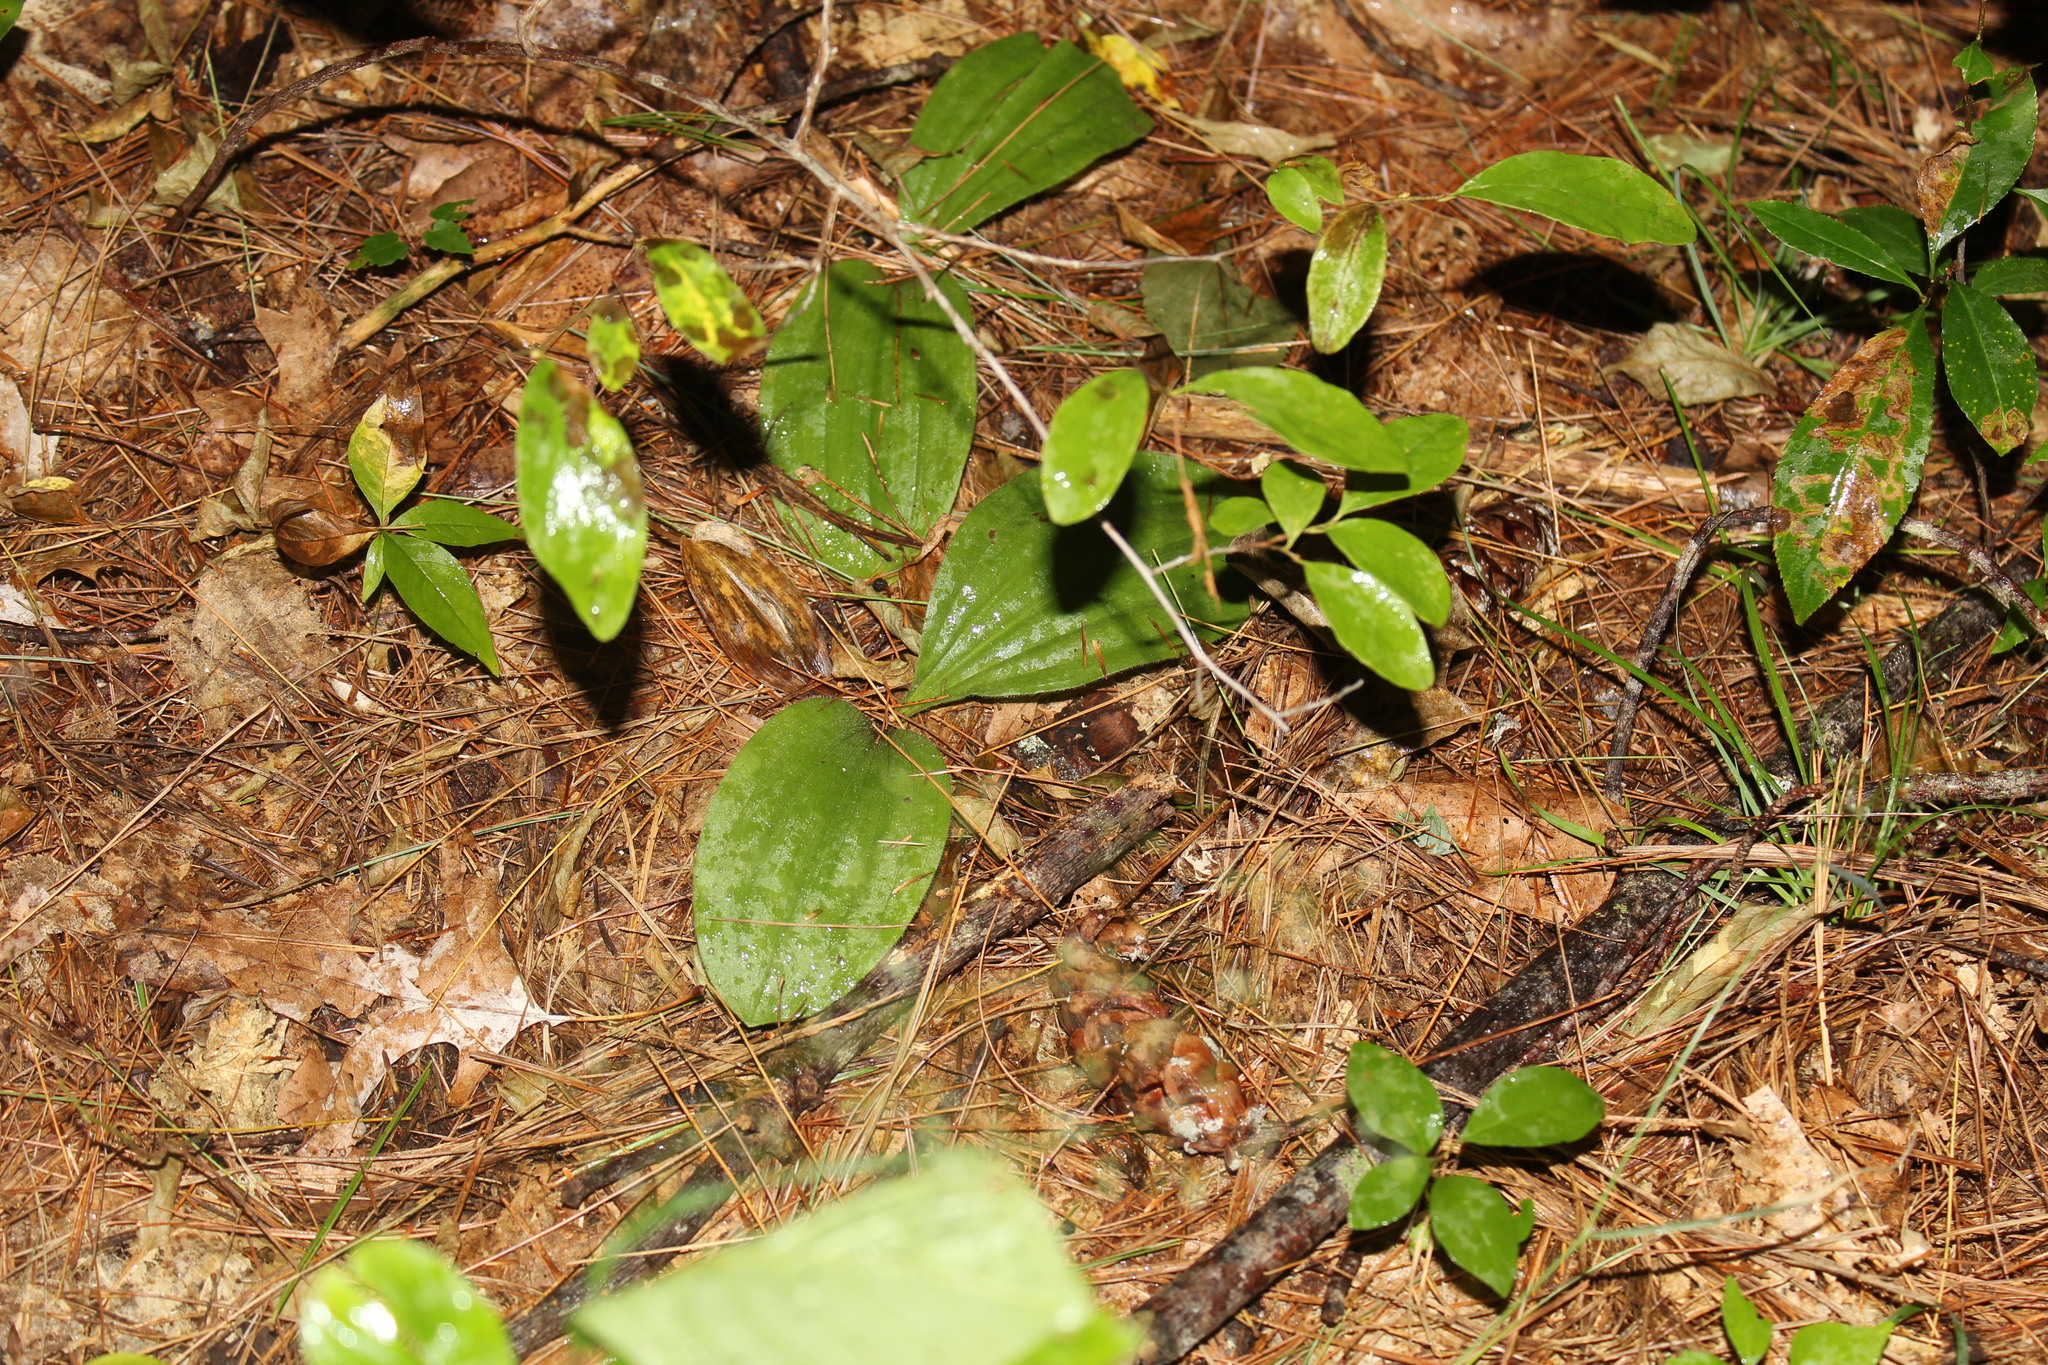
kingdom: Plantae
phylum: Tracheophyta
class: Liliopsida
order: Asparagales
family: Orchidaceae
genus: Cypripedium
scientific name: Cypripedium acaule
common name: Pink lady's-slipper
